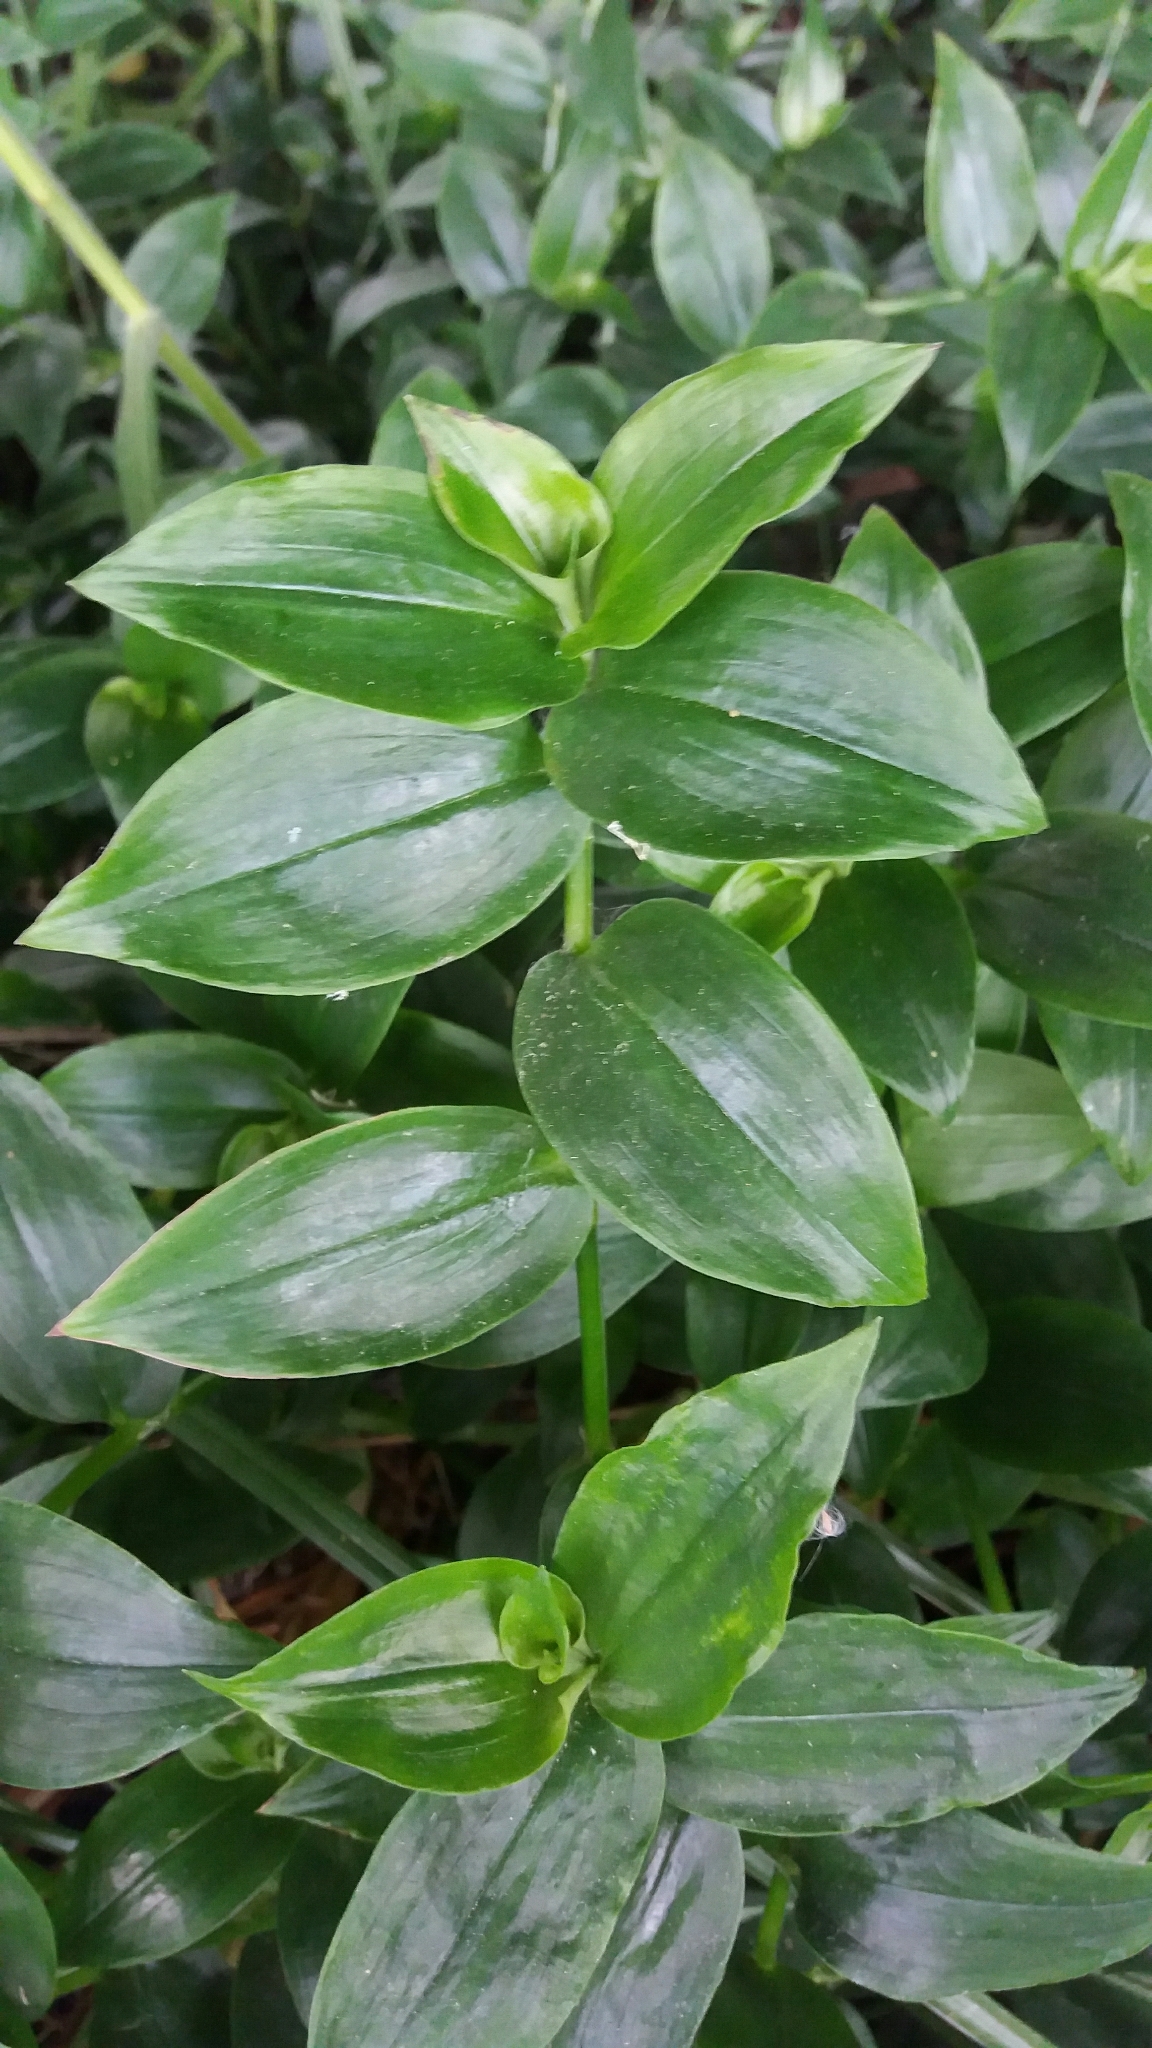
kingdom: Plantae
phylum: Tracheophyta
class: Liliopsida
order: Commelinales
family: Commelinaceae
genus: Tradescantia
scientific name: Tradescantia fluminensis
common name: Wandering-jew
